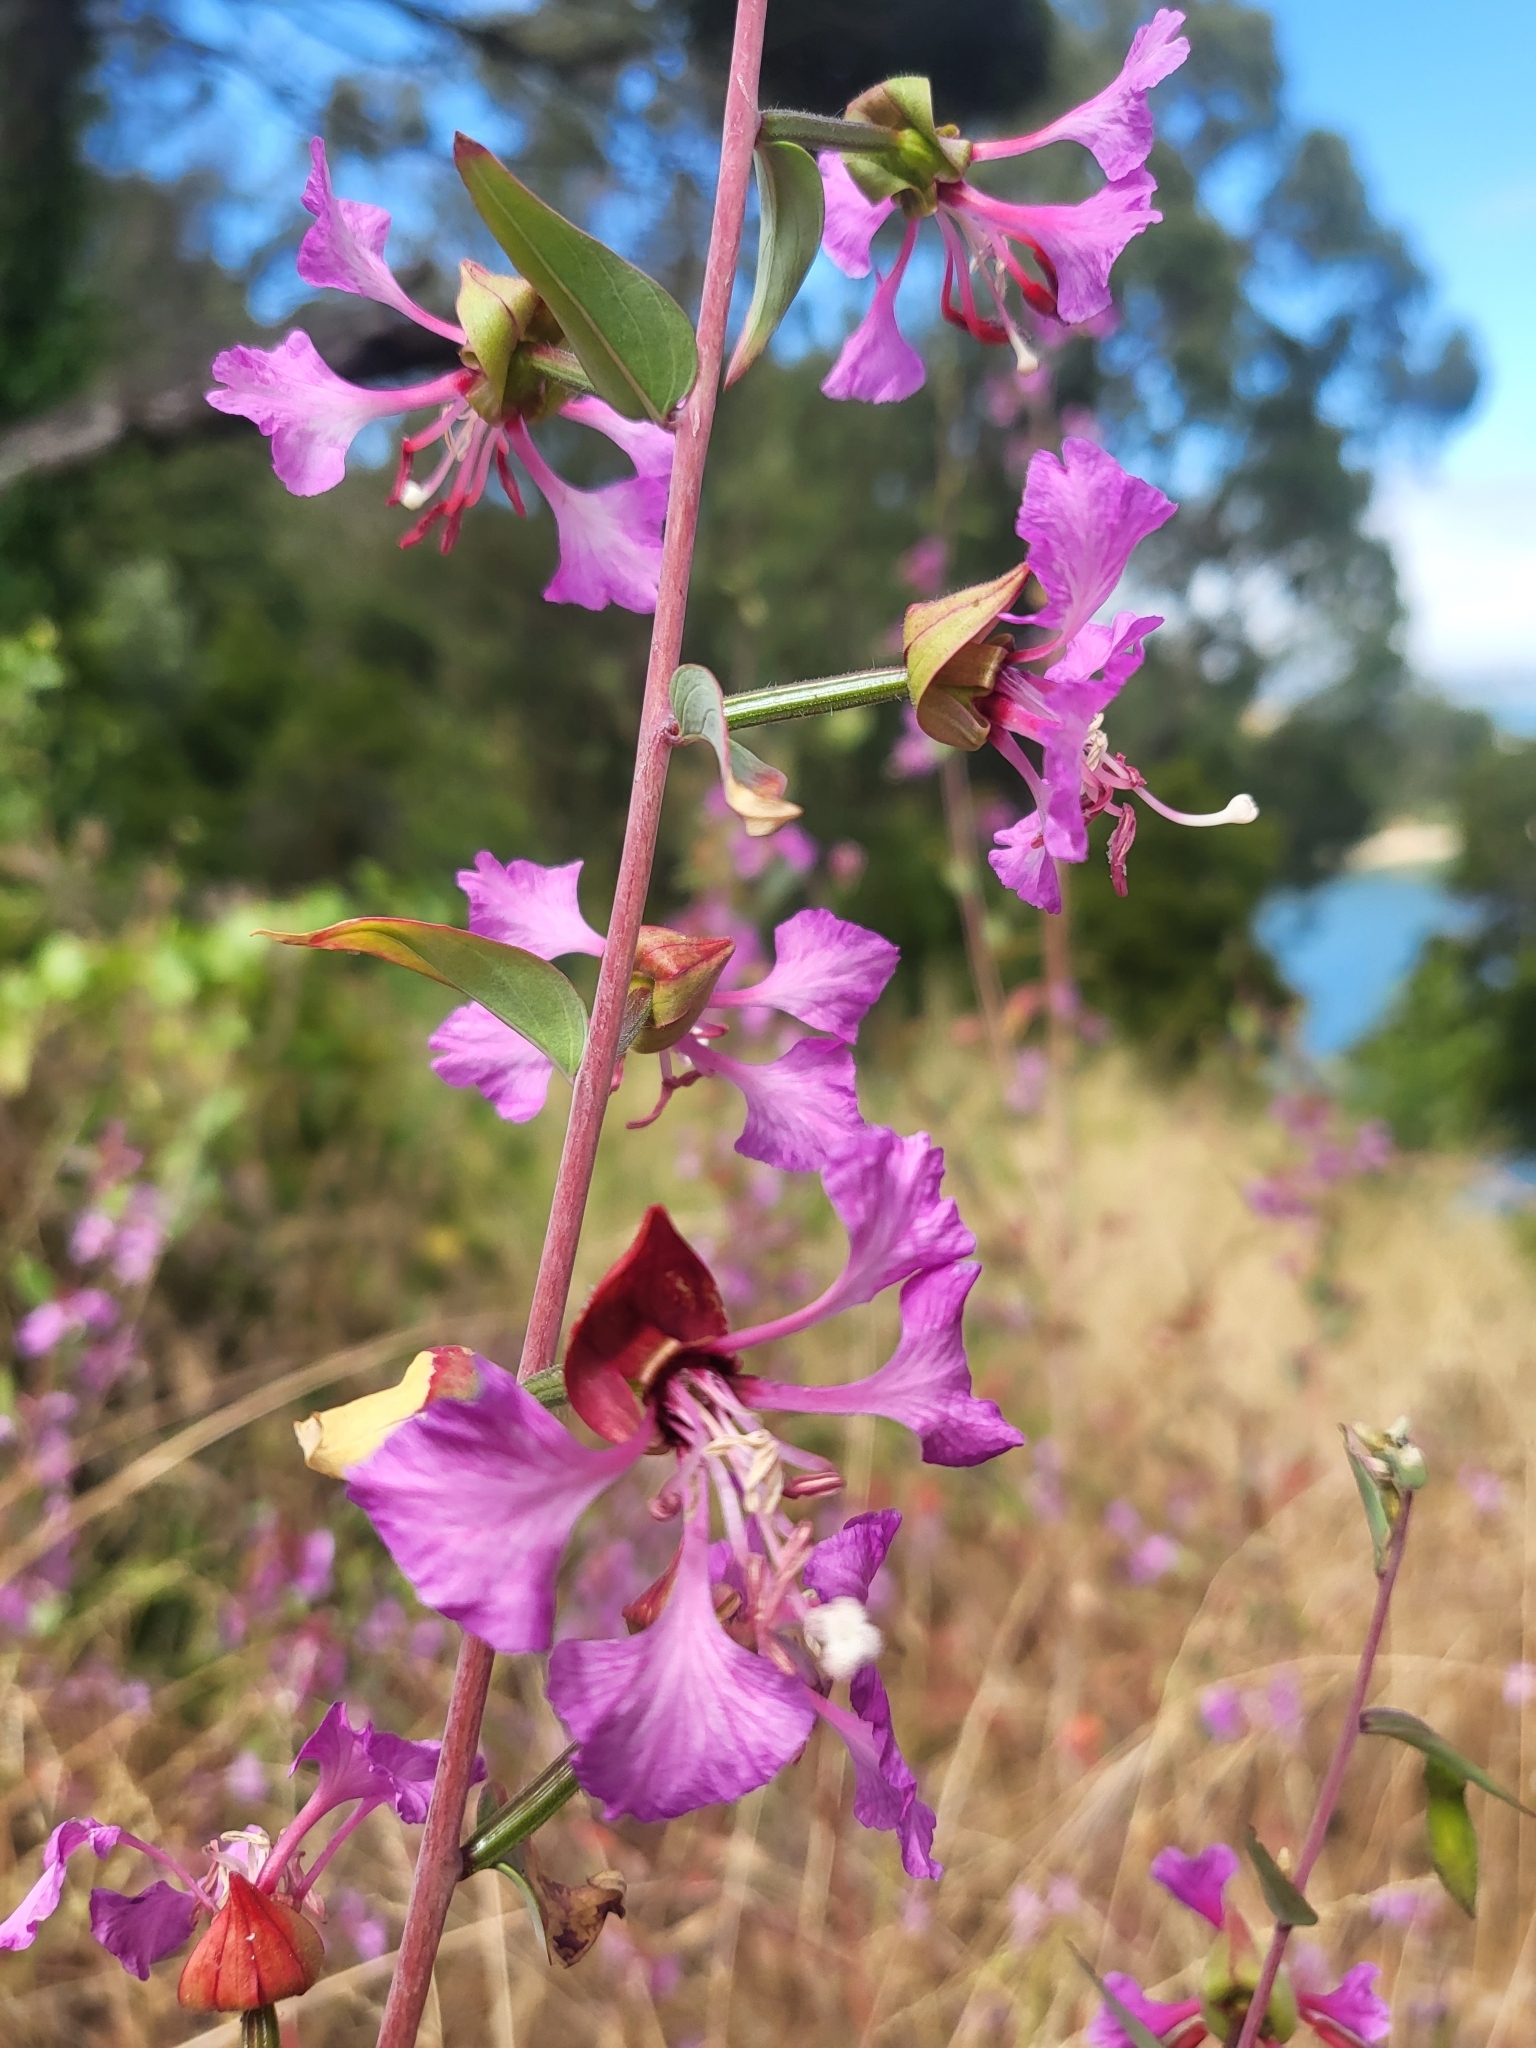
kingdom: Plantae
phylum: Tracheophyta
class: Magnoliopsida
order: Myrtales
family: Onagraceae
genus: Clarkia
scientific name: Clarkia unguiculata
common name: Clarkia
